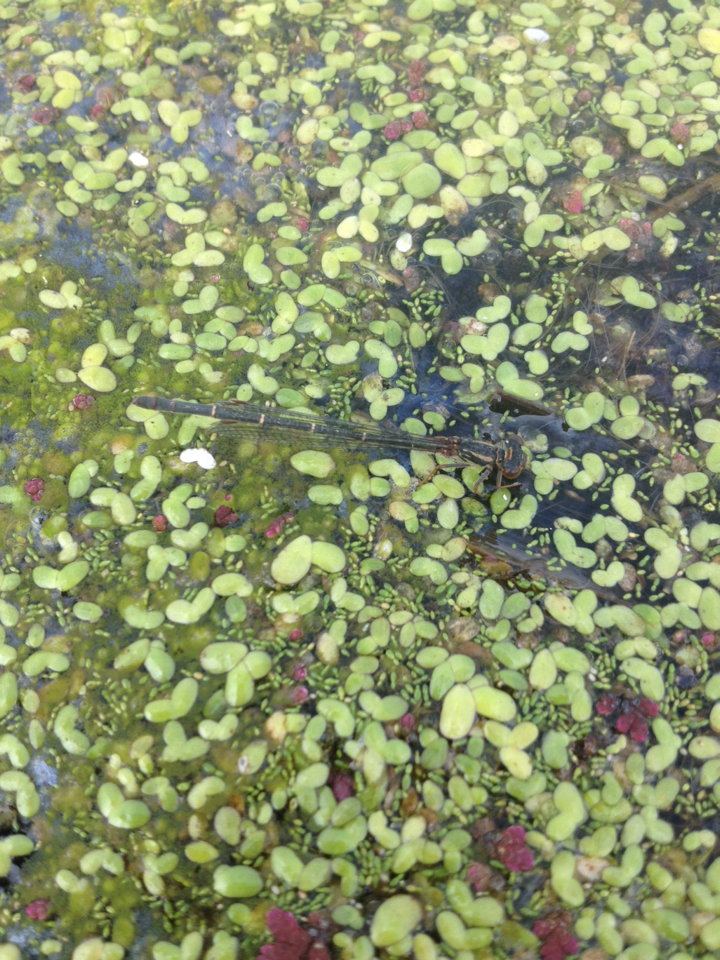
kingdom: Animalia
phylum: Arthropoda
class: Insecta
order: Odonata
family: Coenagrionidae
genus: Xanthocnemis
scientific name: Xanthocnemis zealandica
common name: Common redcoat damselfly
